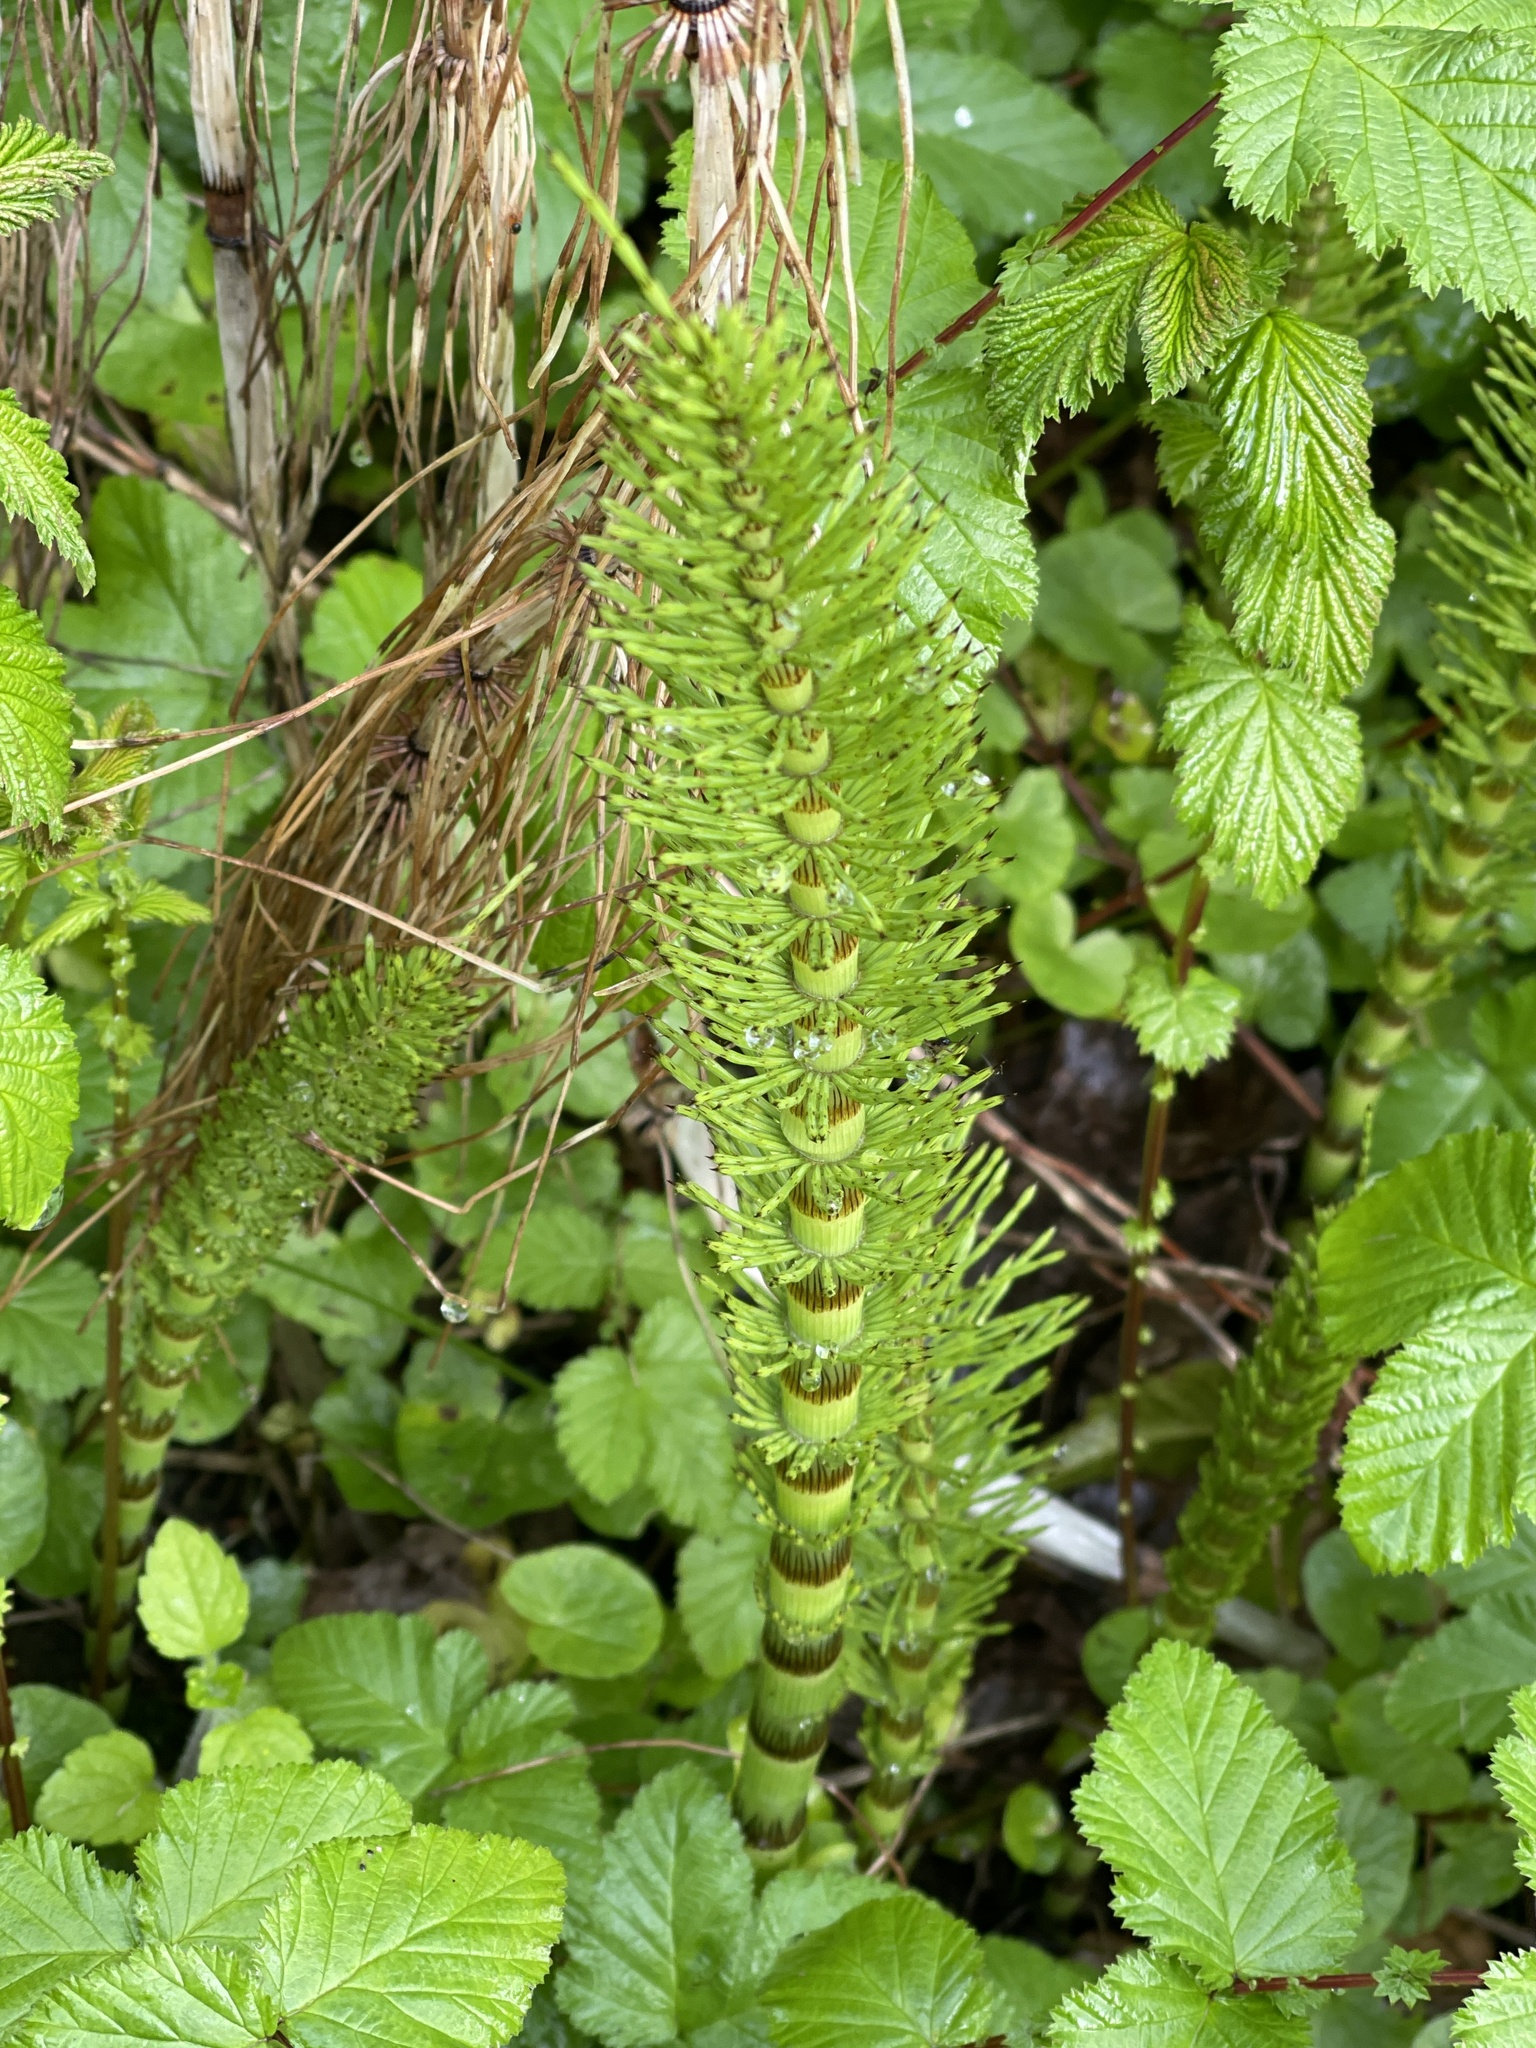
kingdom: Plantae
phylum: Tracheophyta
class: Polypodiopsida
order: Equisetales
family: Equisetaceae
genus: Equisetum
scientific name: Equisetum telmateia
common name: Great horsetail
